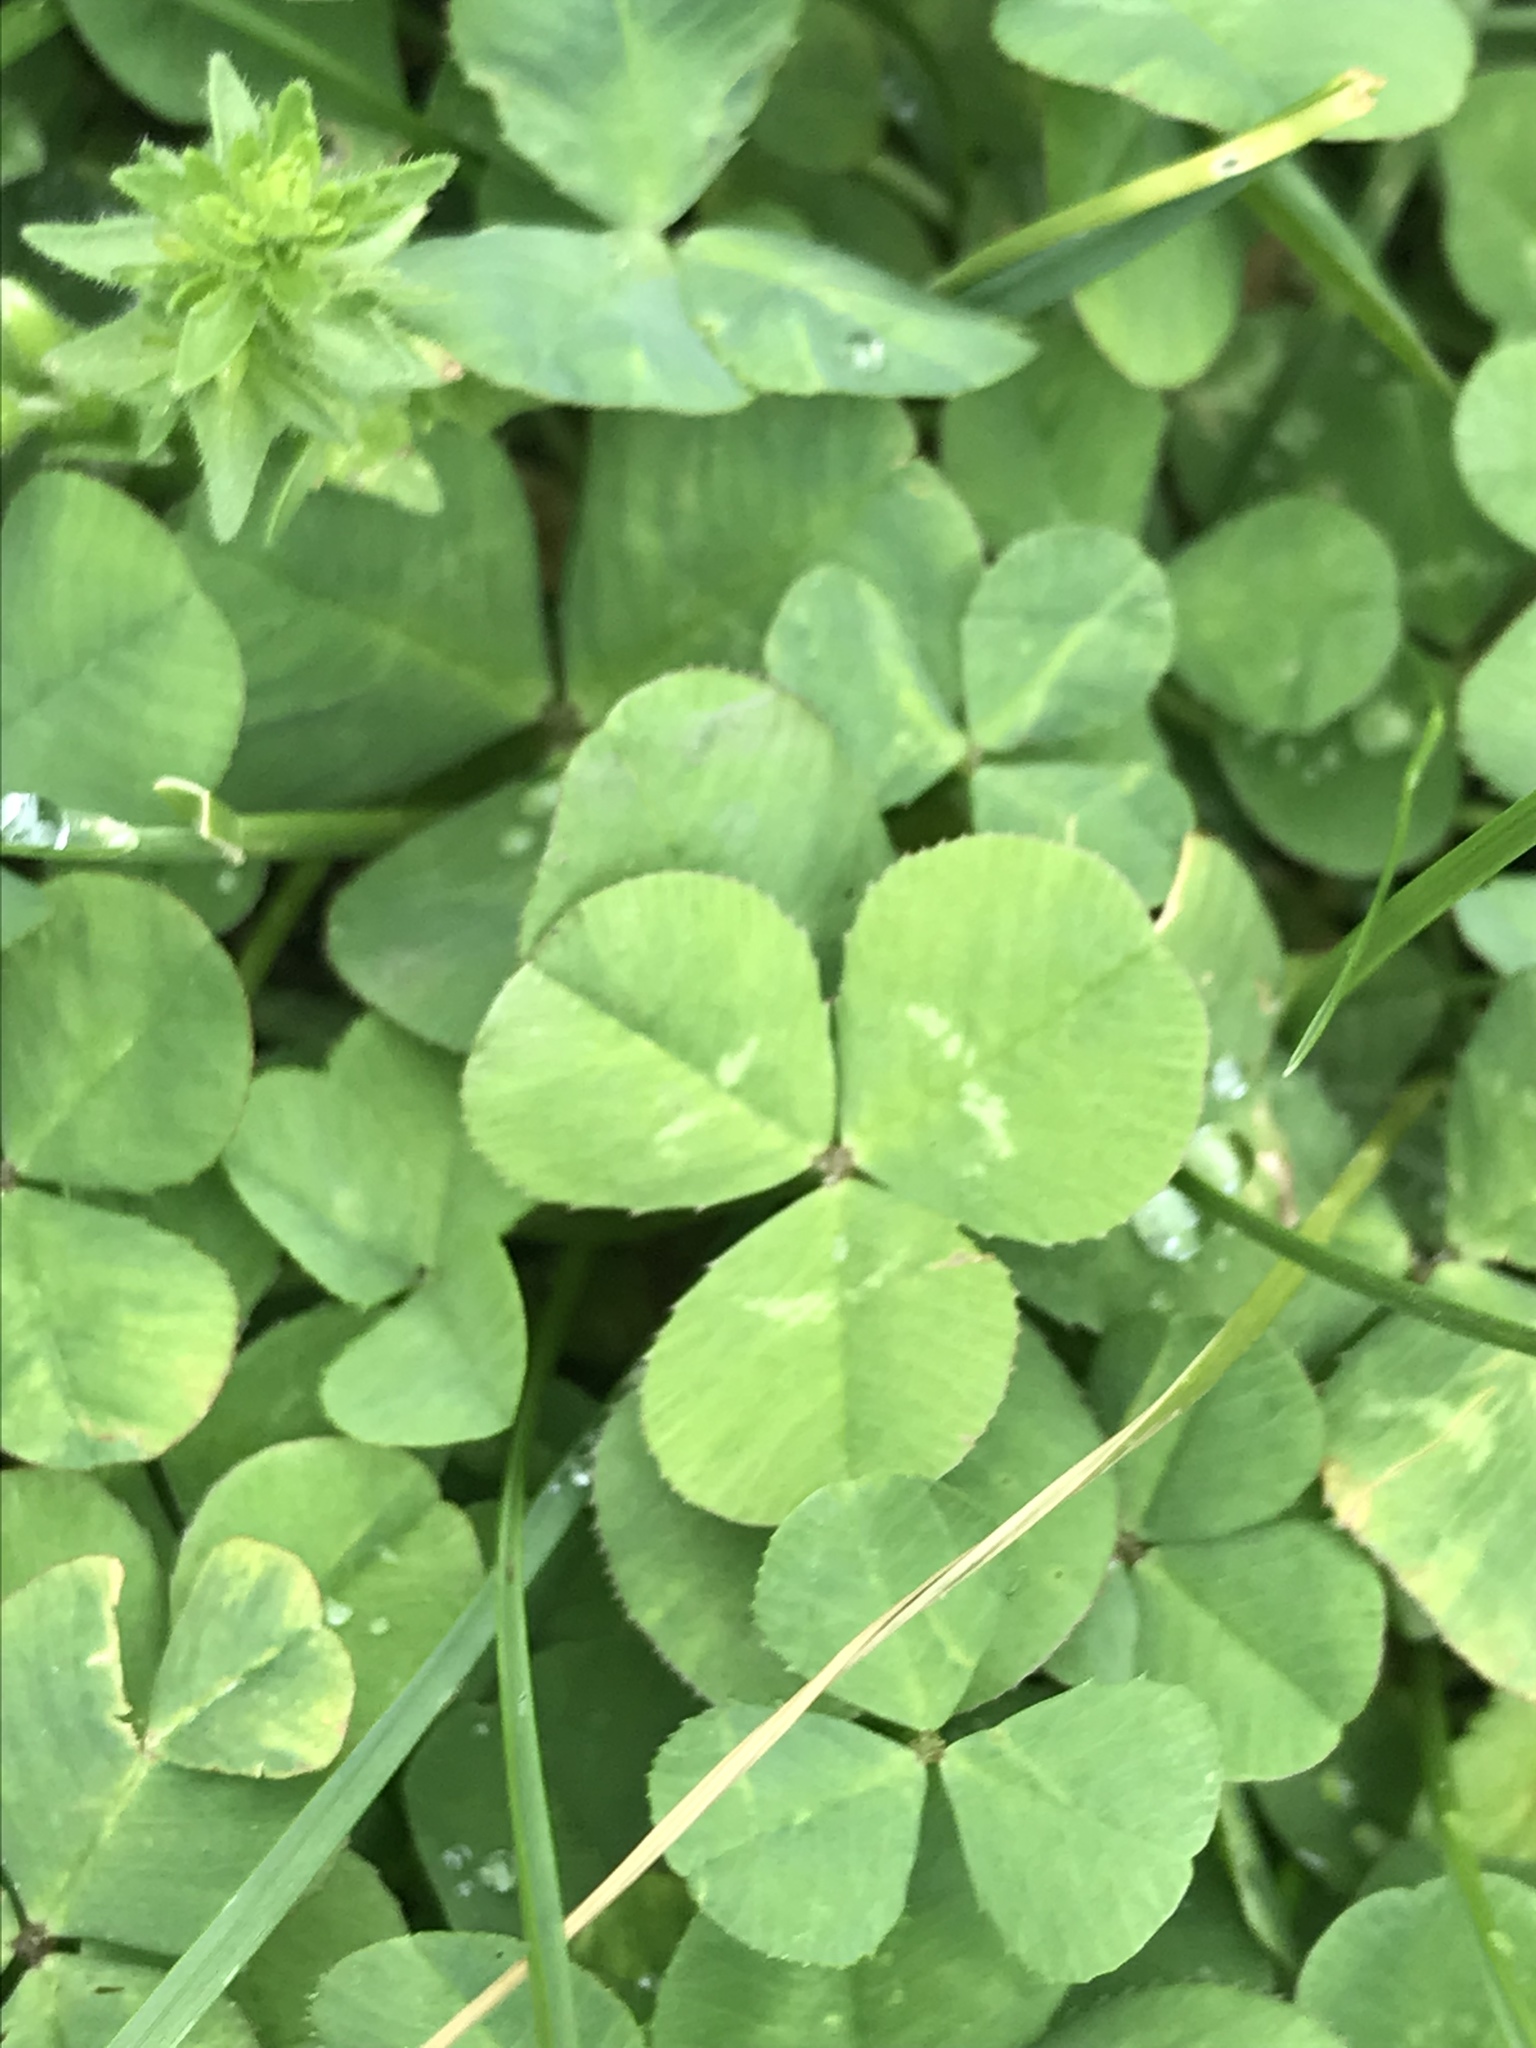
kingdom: Plantae
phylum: Tracheophyta
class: Magnoliopsida
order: Fabales
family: Fabaceae
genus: Trifolium
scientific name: Trifolium repens
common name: White clover
